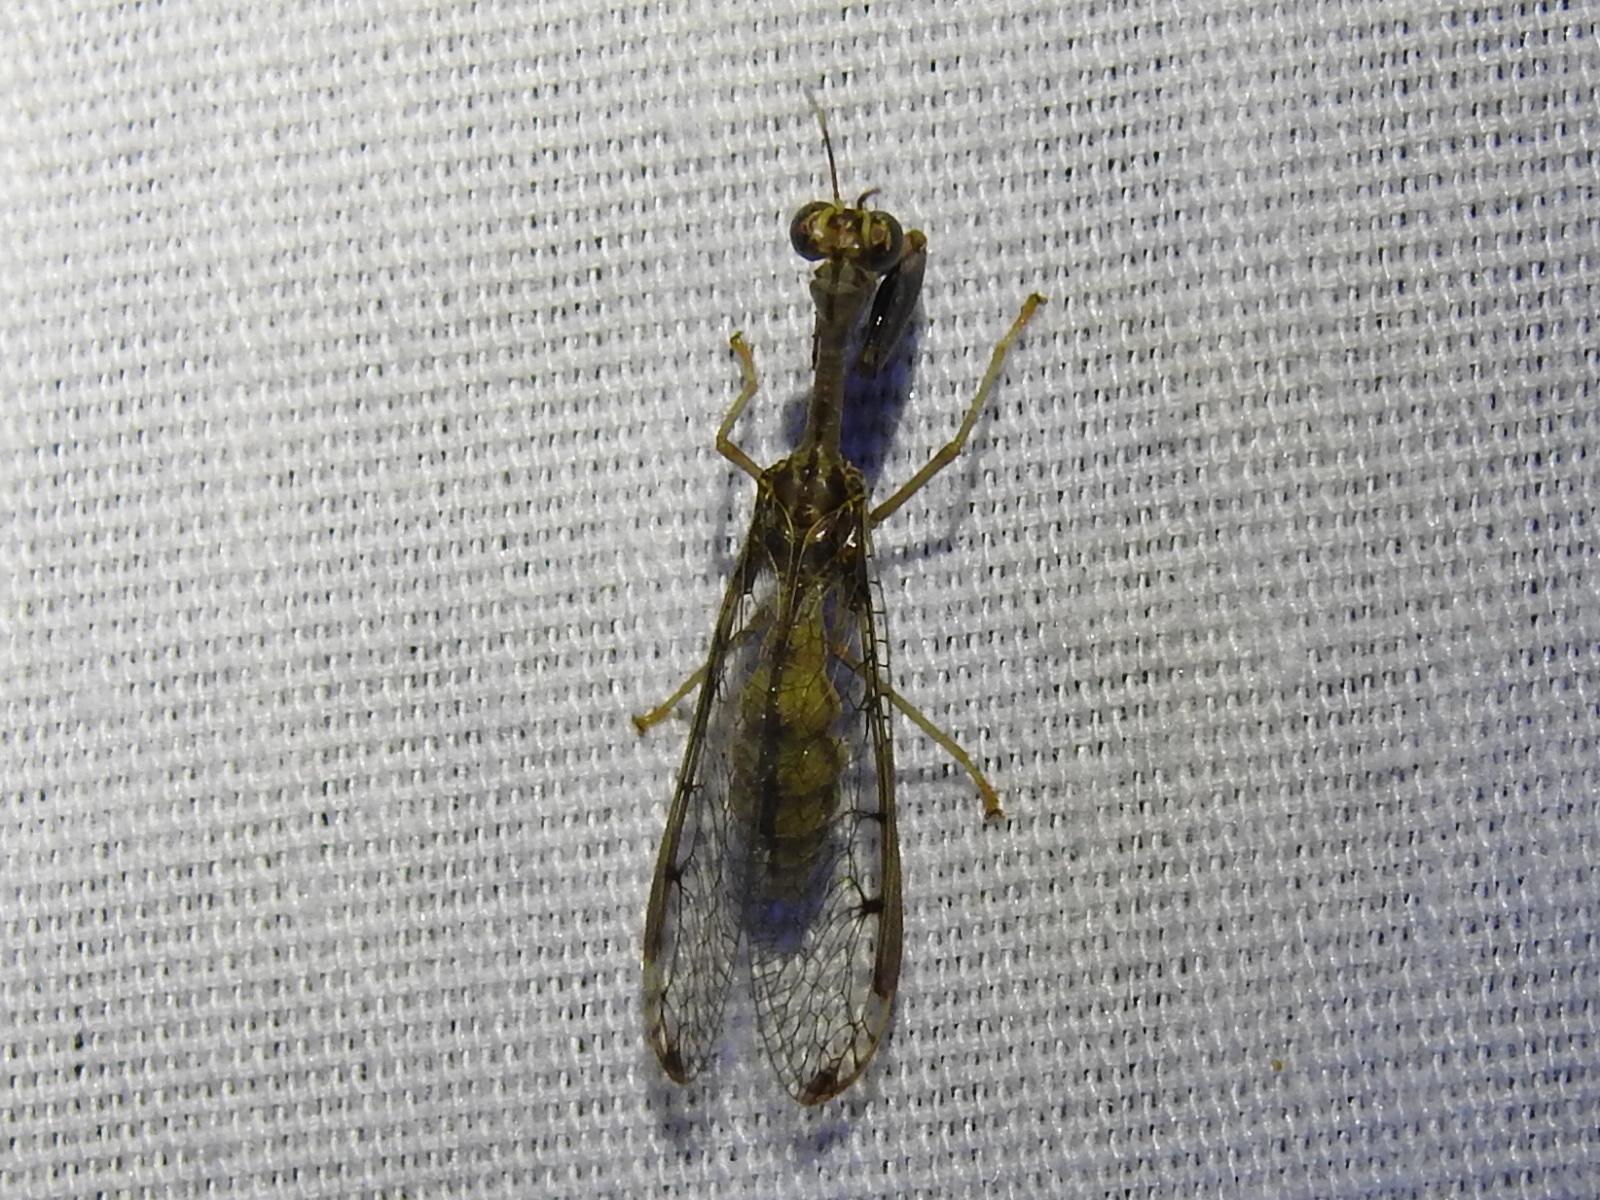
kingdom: Animalia
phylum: Arthropoda
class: Insecta
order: Neuroptera
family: Mantispidae
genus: Dicromantispa
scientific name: Dicromantispa interrupta
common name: Four-spotted mantidfly
